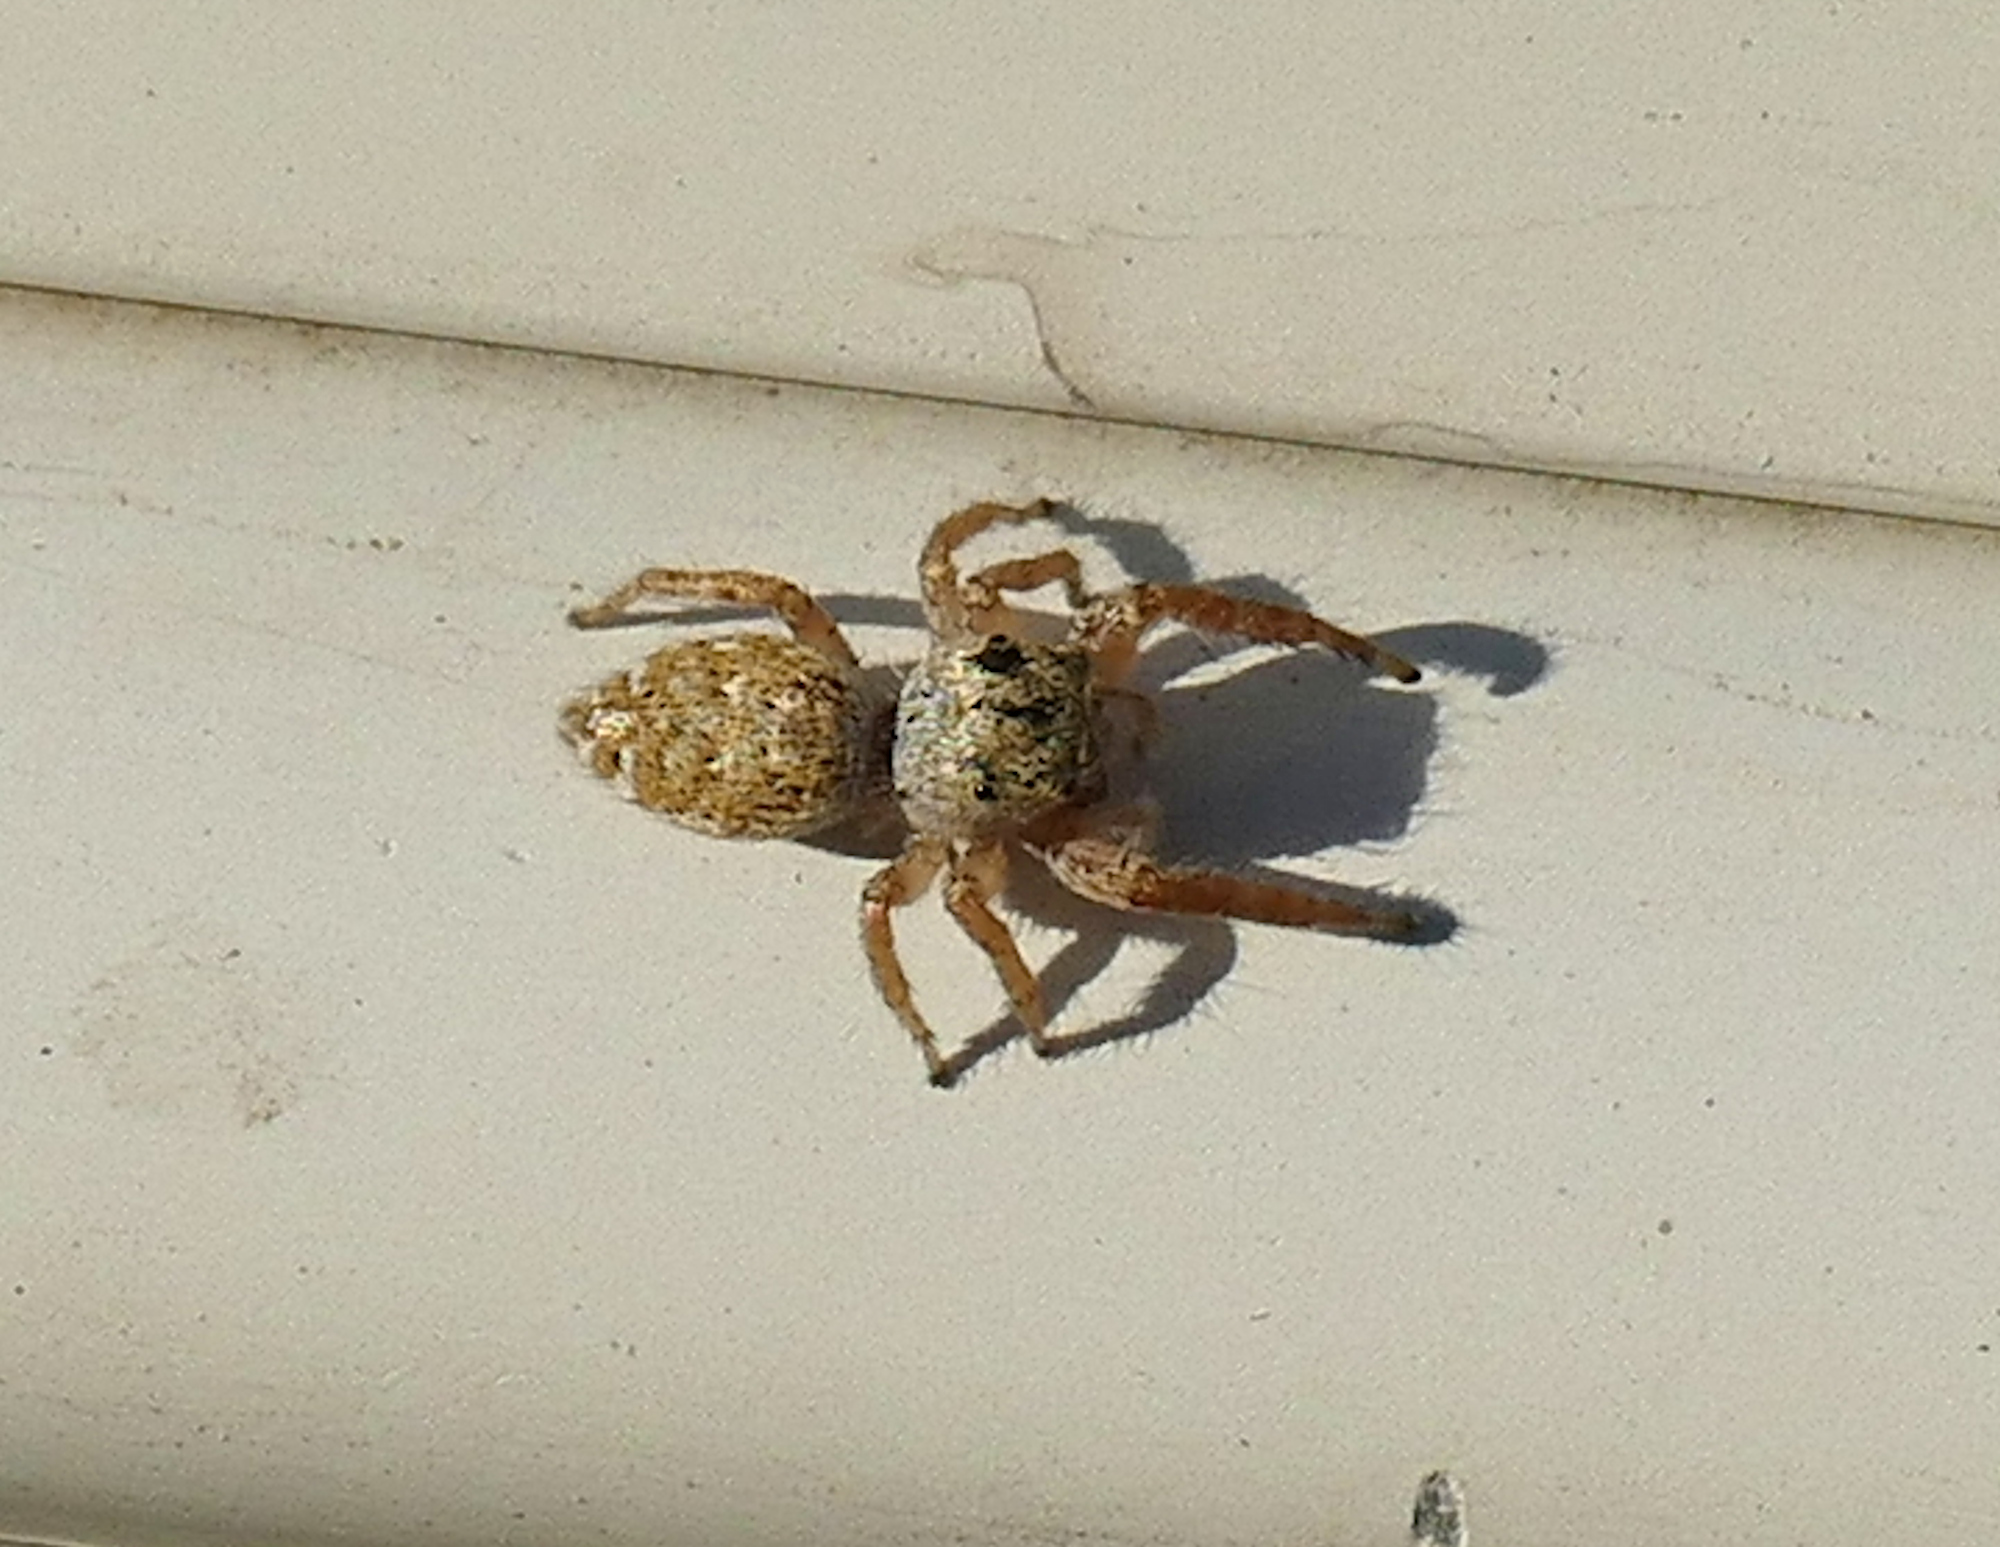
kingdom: Animalia
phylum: Arthropoda
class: Arachnida
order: Araneae
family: Salticidae
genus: Metaphidippus
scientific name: Metaphidippus chera
